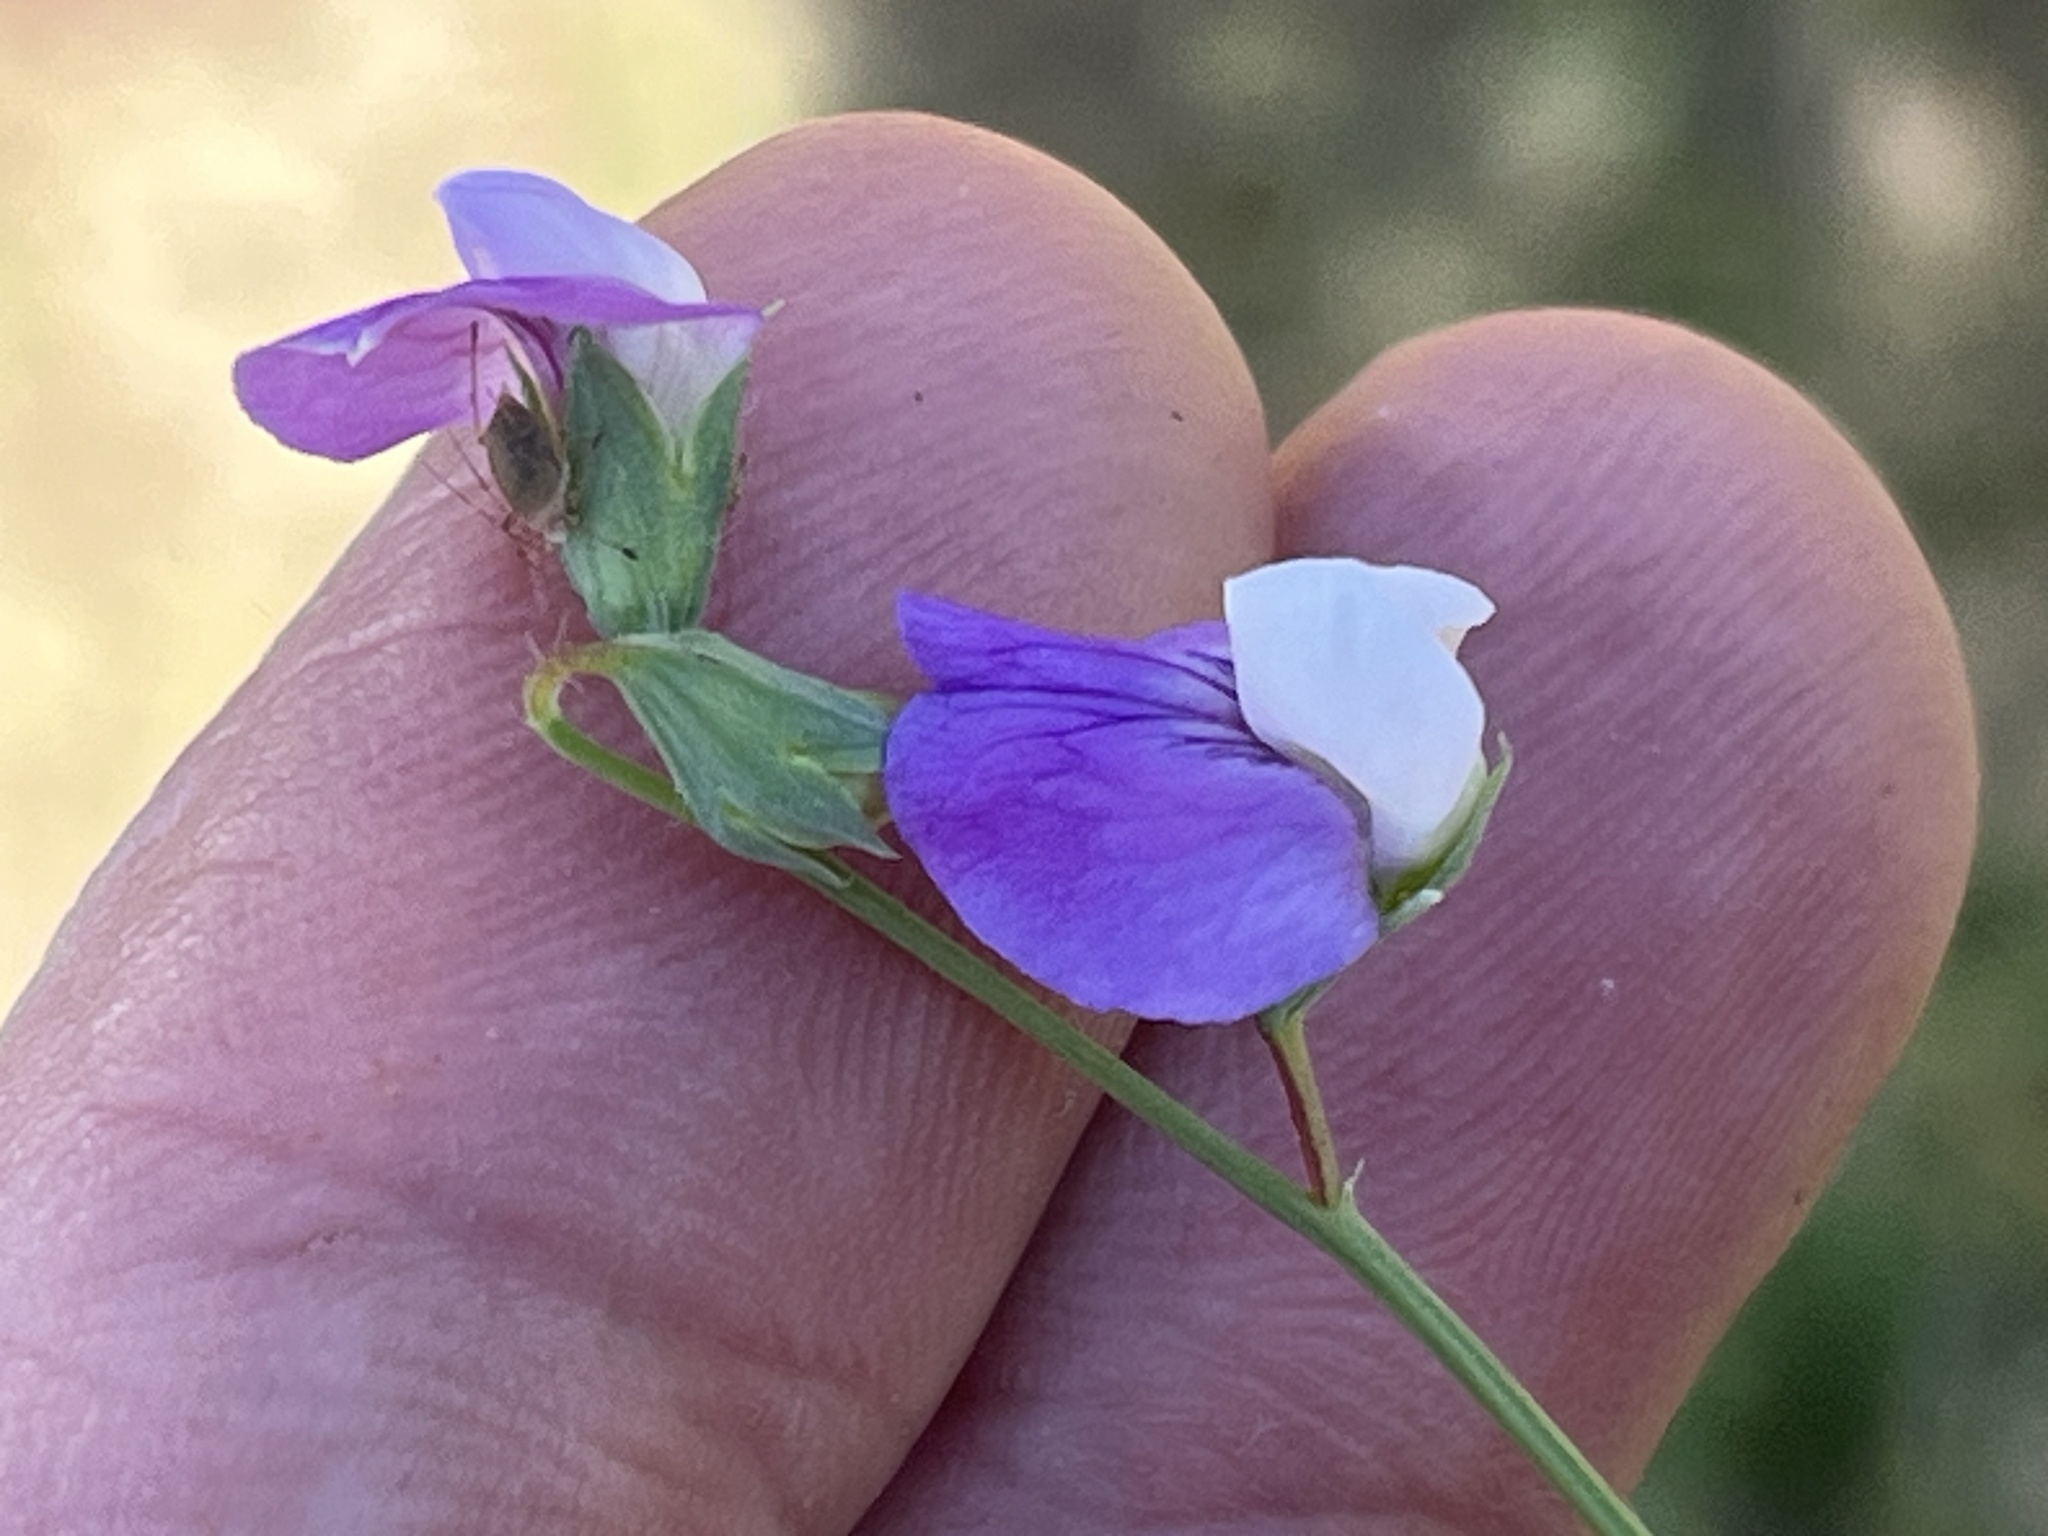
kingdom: Plantae
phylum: Tracheophyta
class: Magnoliopsida
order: Fabales
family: Fabaceae
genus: Lathyrus
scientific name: Lathyrus hirsutus
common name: Hairy vetchling
